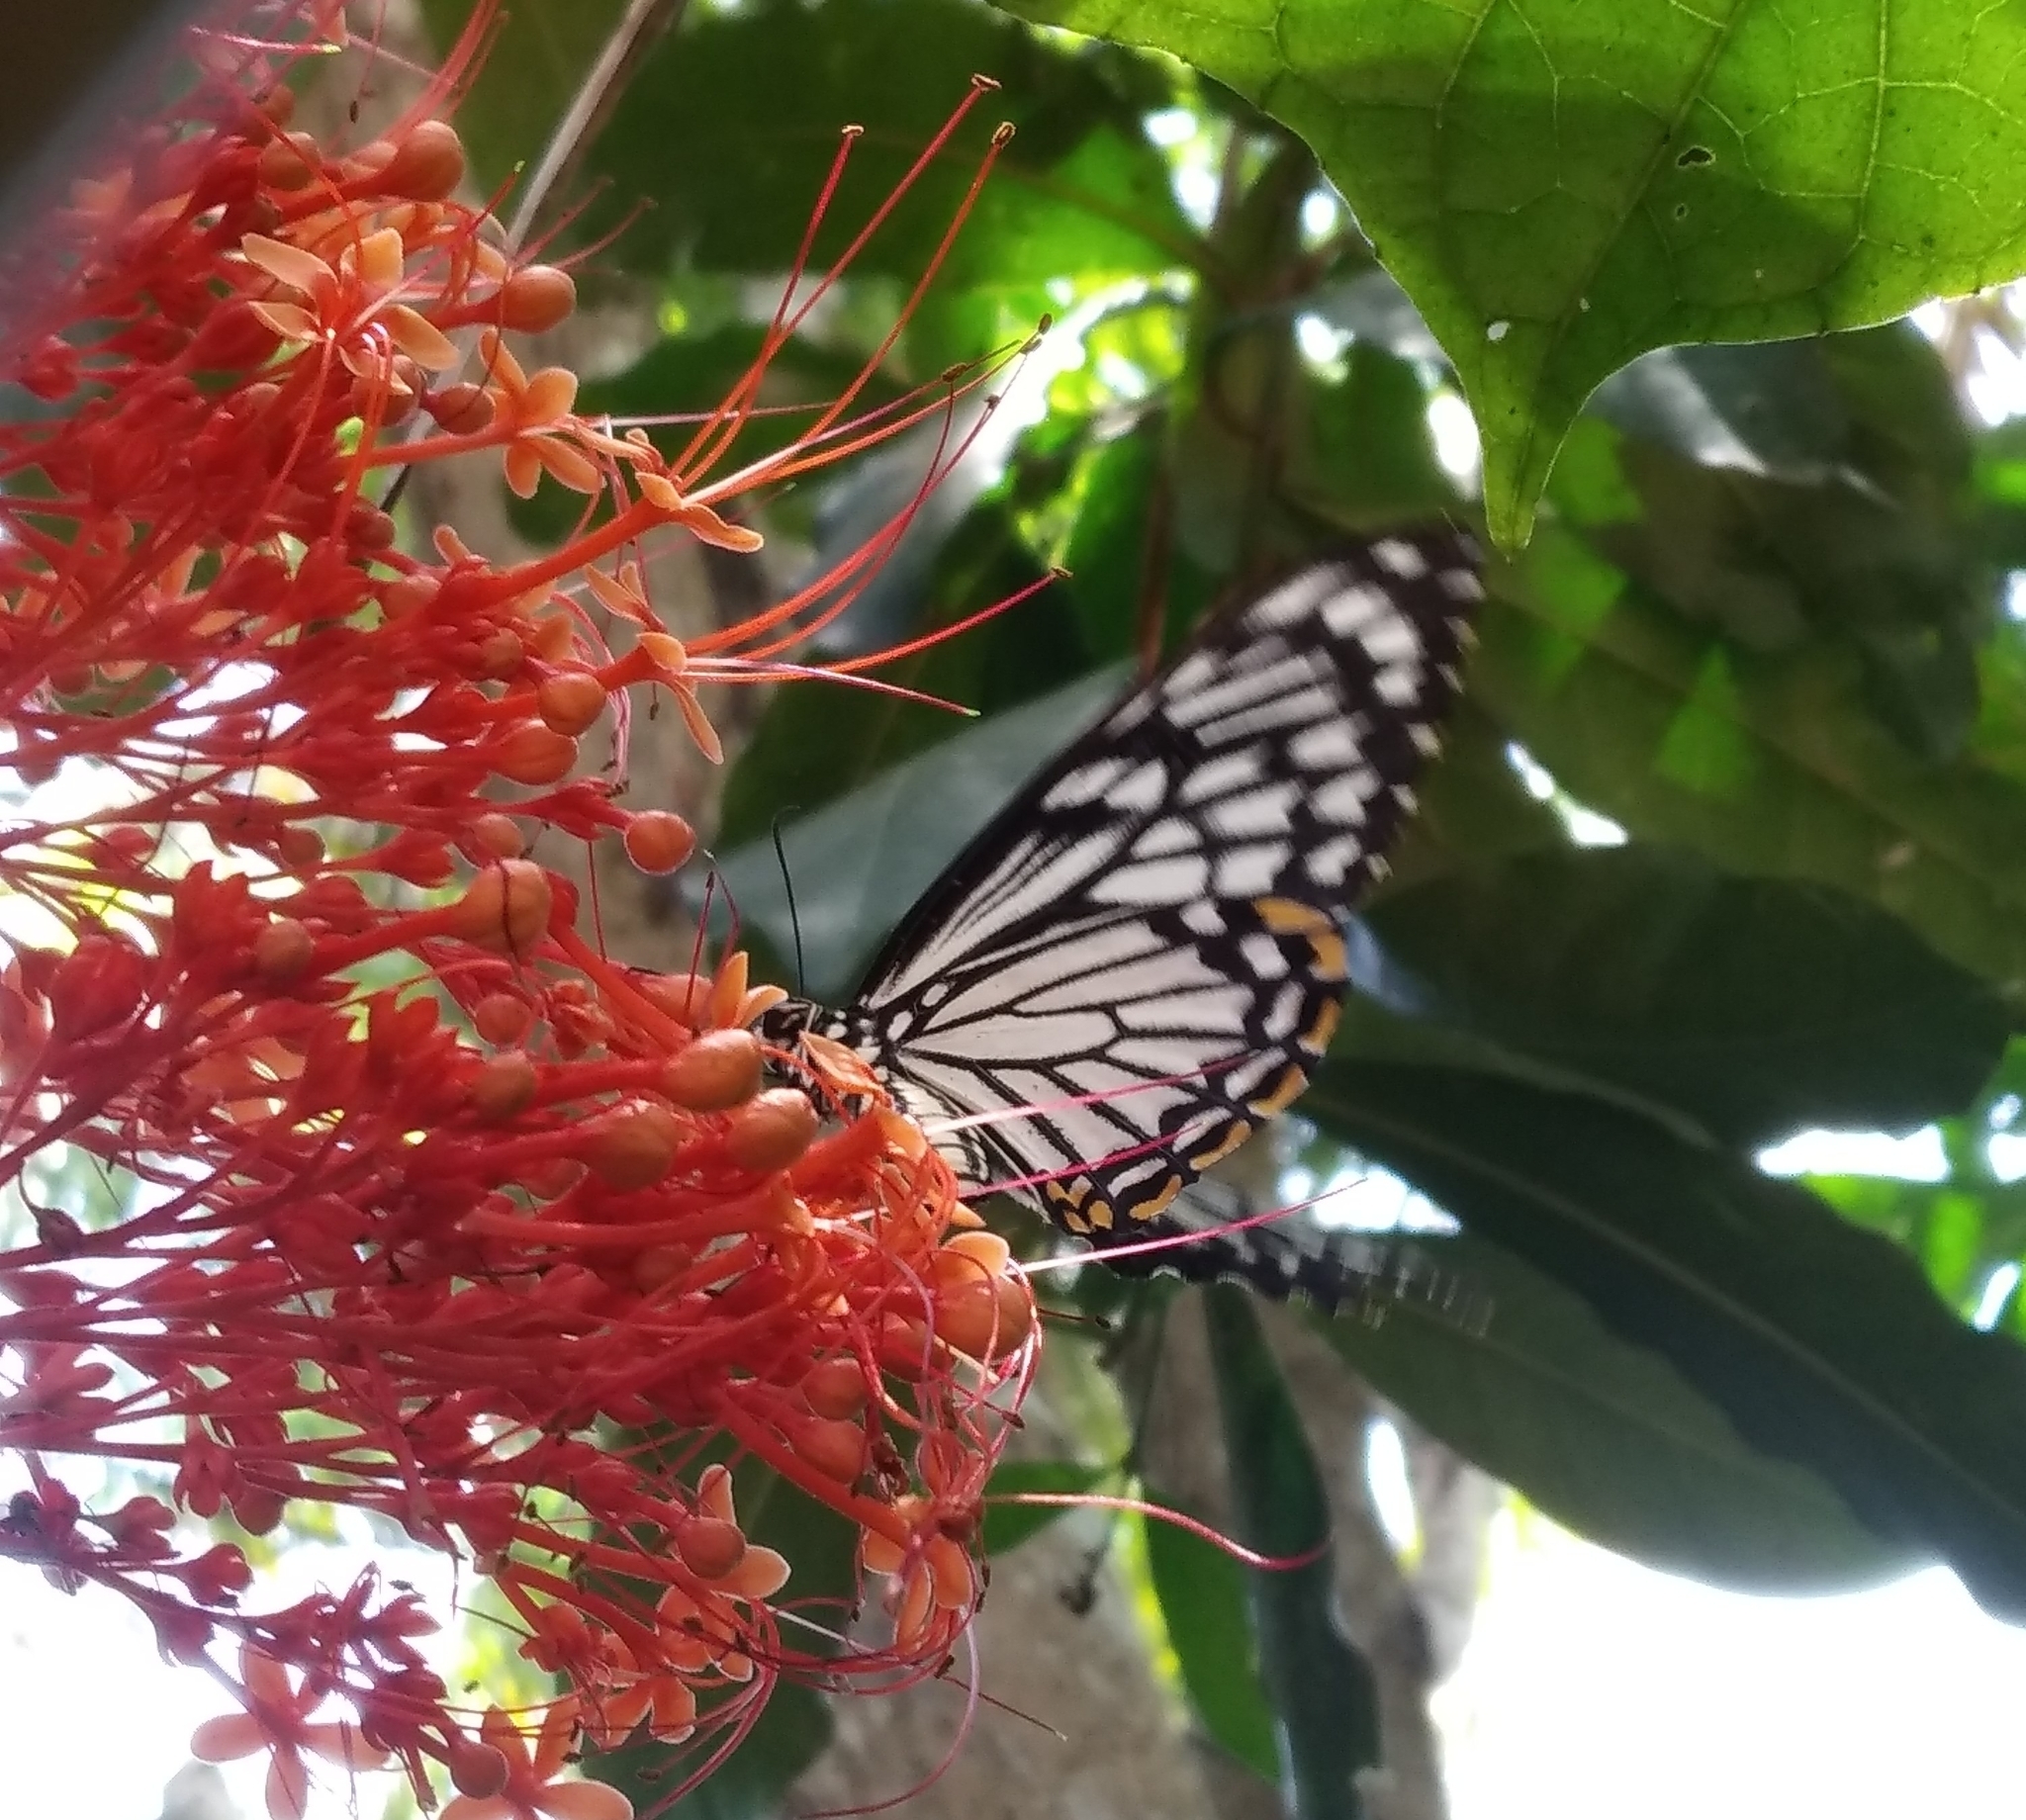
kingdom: Animalia
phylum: Arthropoda
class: Insecta
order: Lepidoptera
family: Papilionidae
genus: Chilasa
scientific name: Chilasa clytia
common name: Common mime
